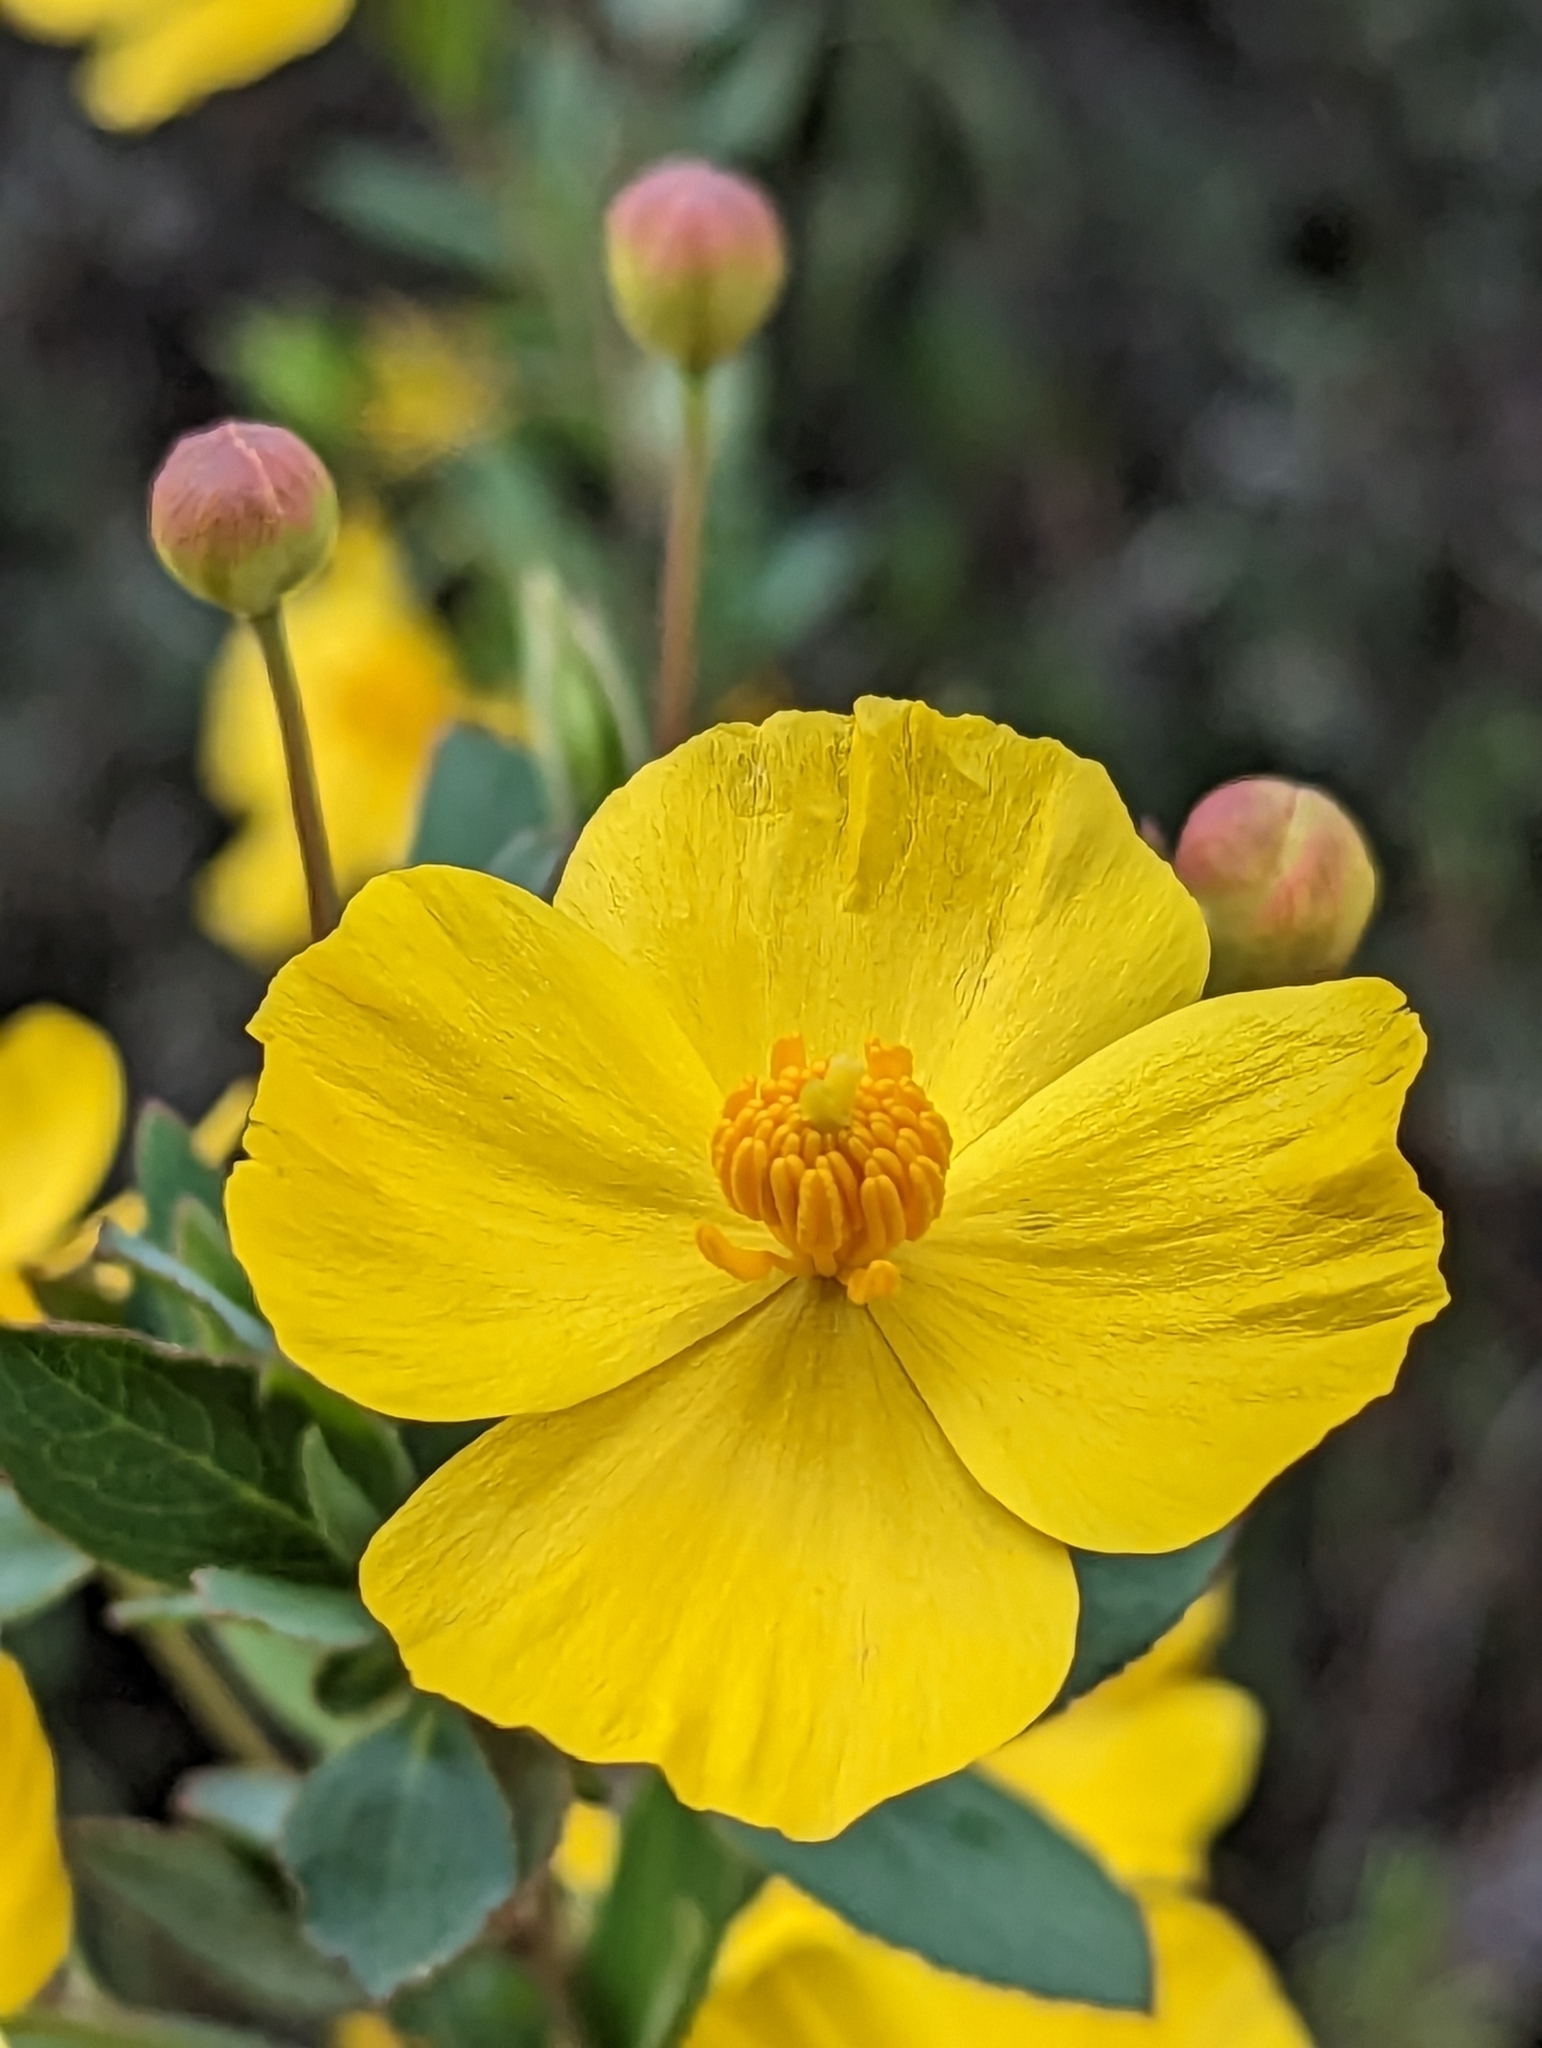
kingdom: Plantae
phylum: Tracheophyta
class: Magnoliopsida
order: Ranunculales
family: Papaveraceae
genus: Dendromecon
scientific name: Dendromecon rigida
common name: Tree poppy
